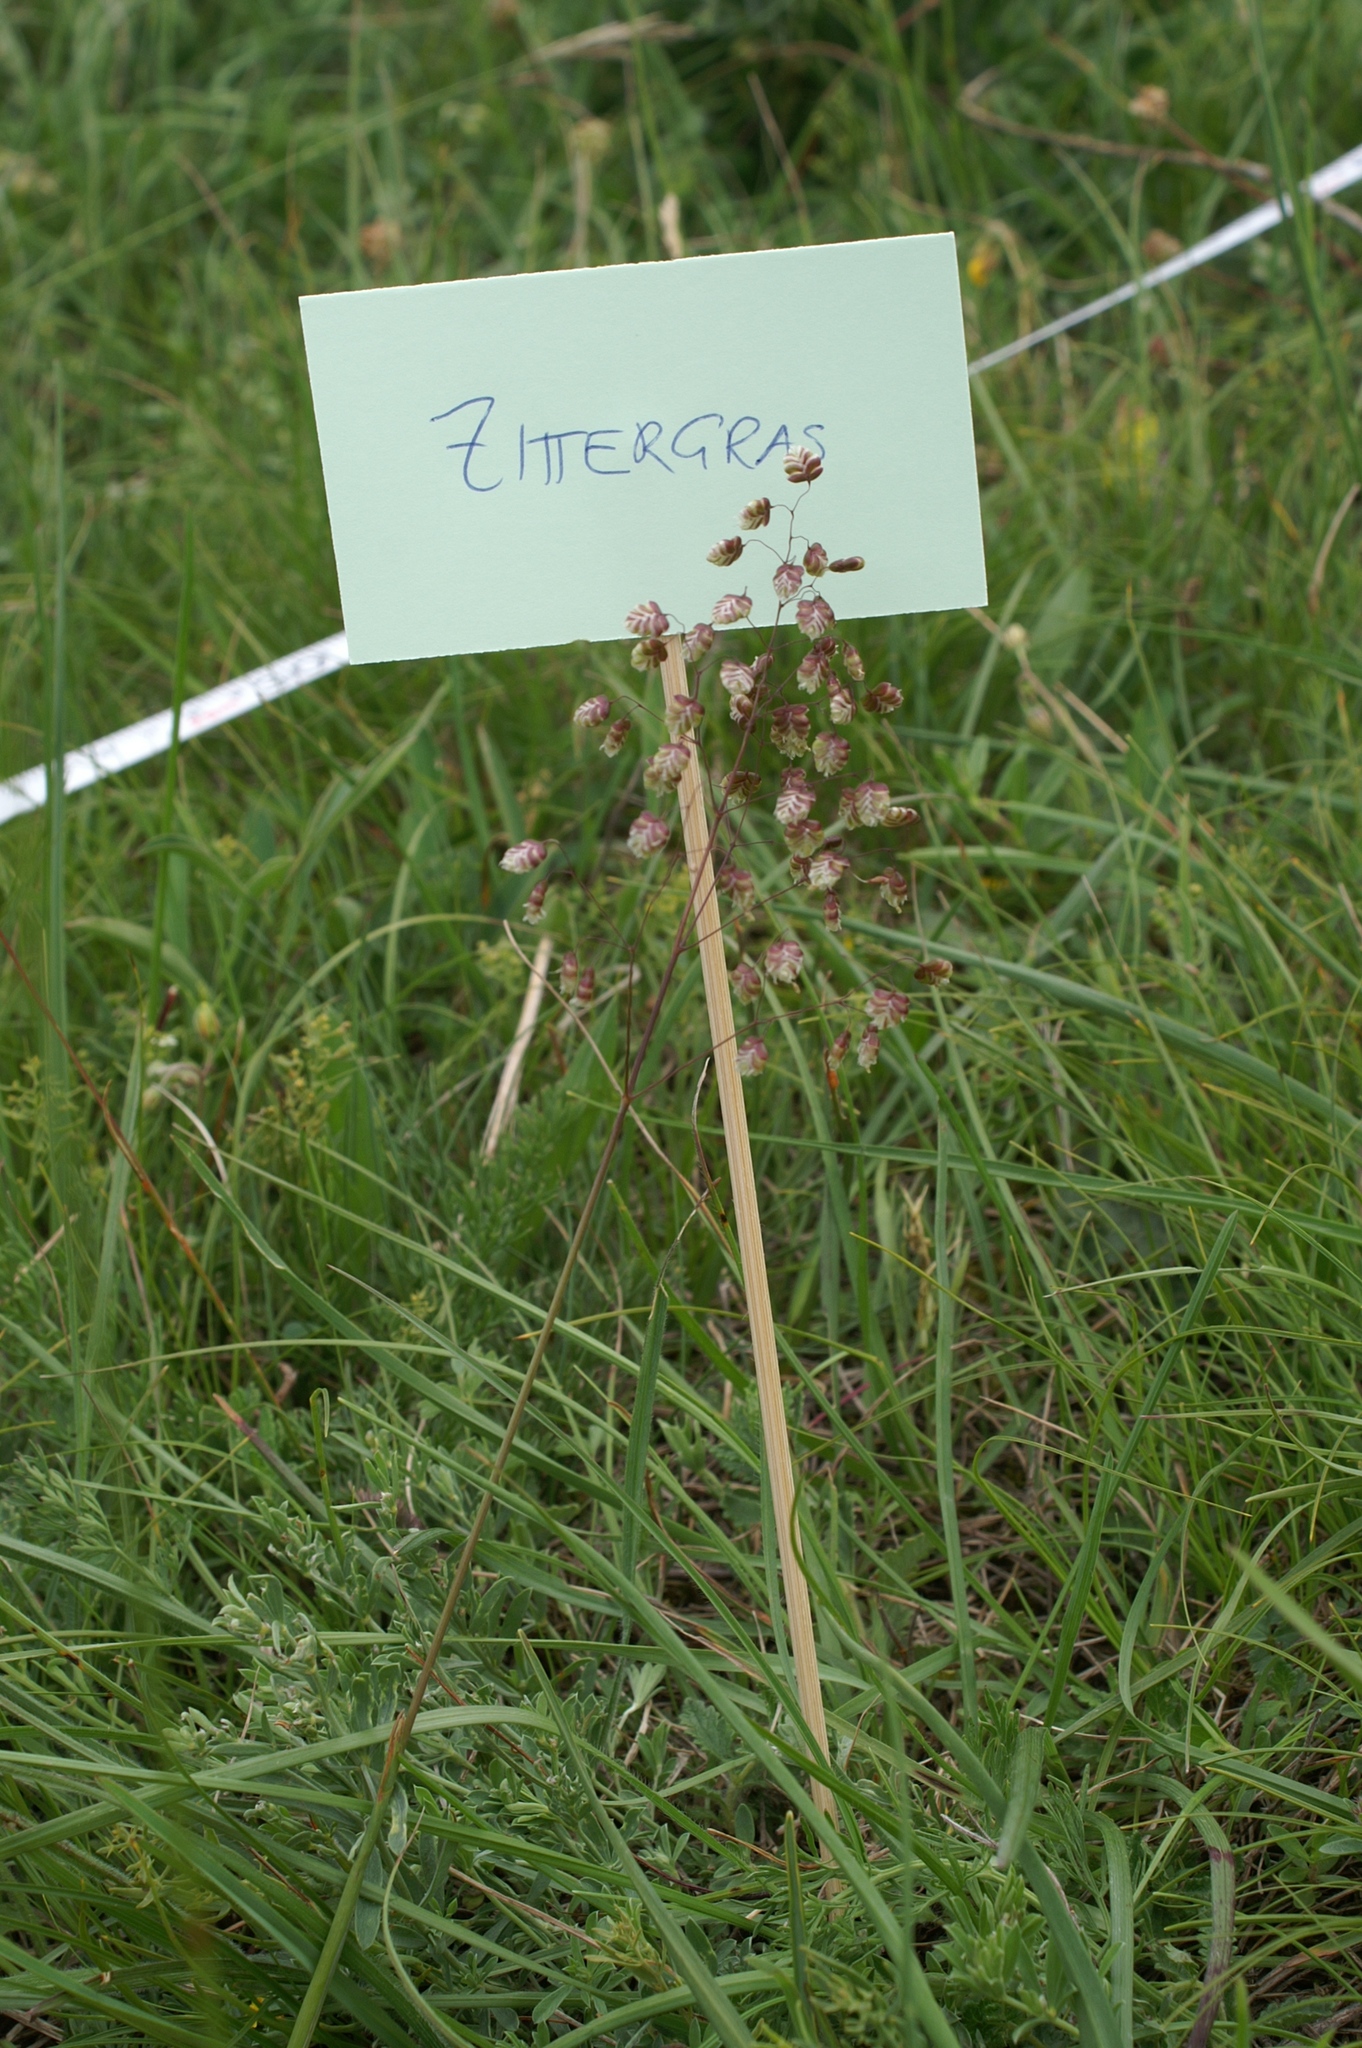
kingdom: Plantae
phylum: Tracheophyta
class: Liliopsida
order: Poales
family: Poaceae
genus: Briza
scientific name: Briza media
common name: Quaking grass
